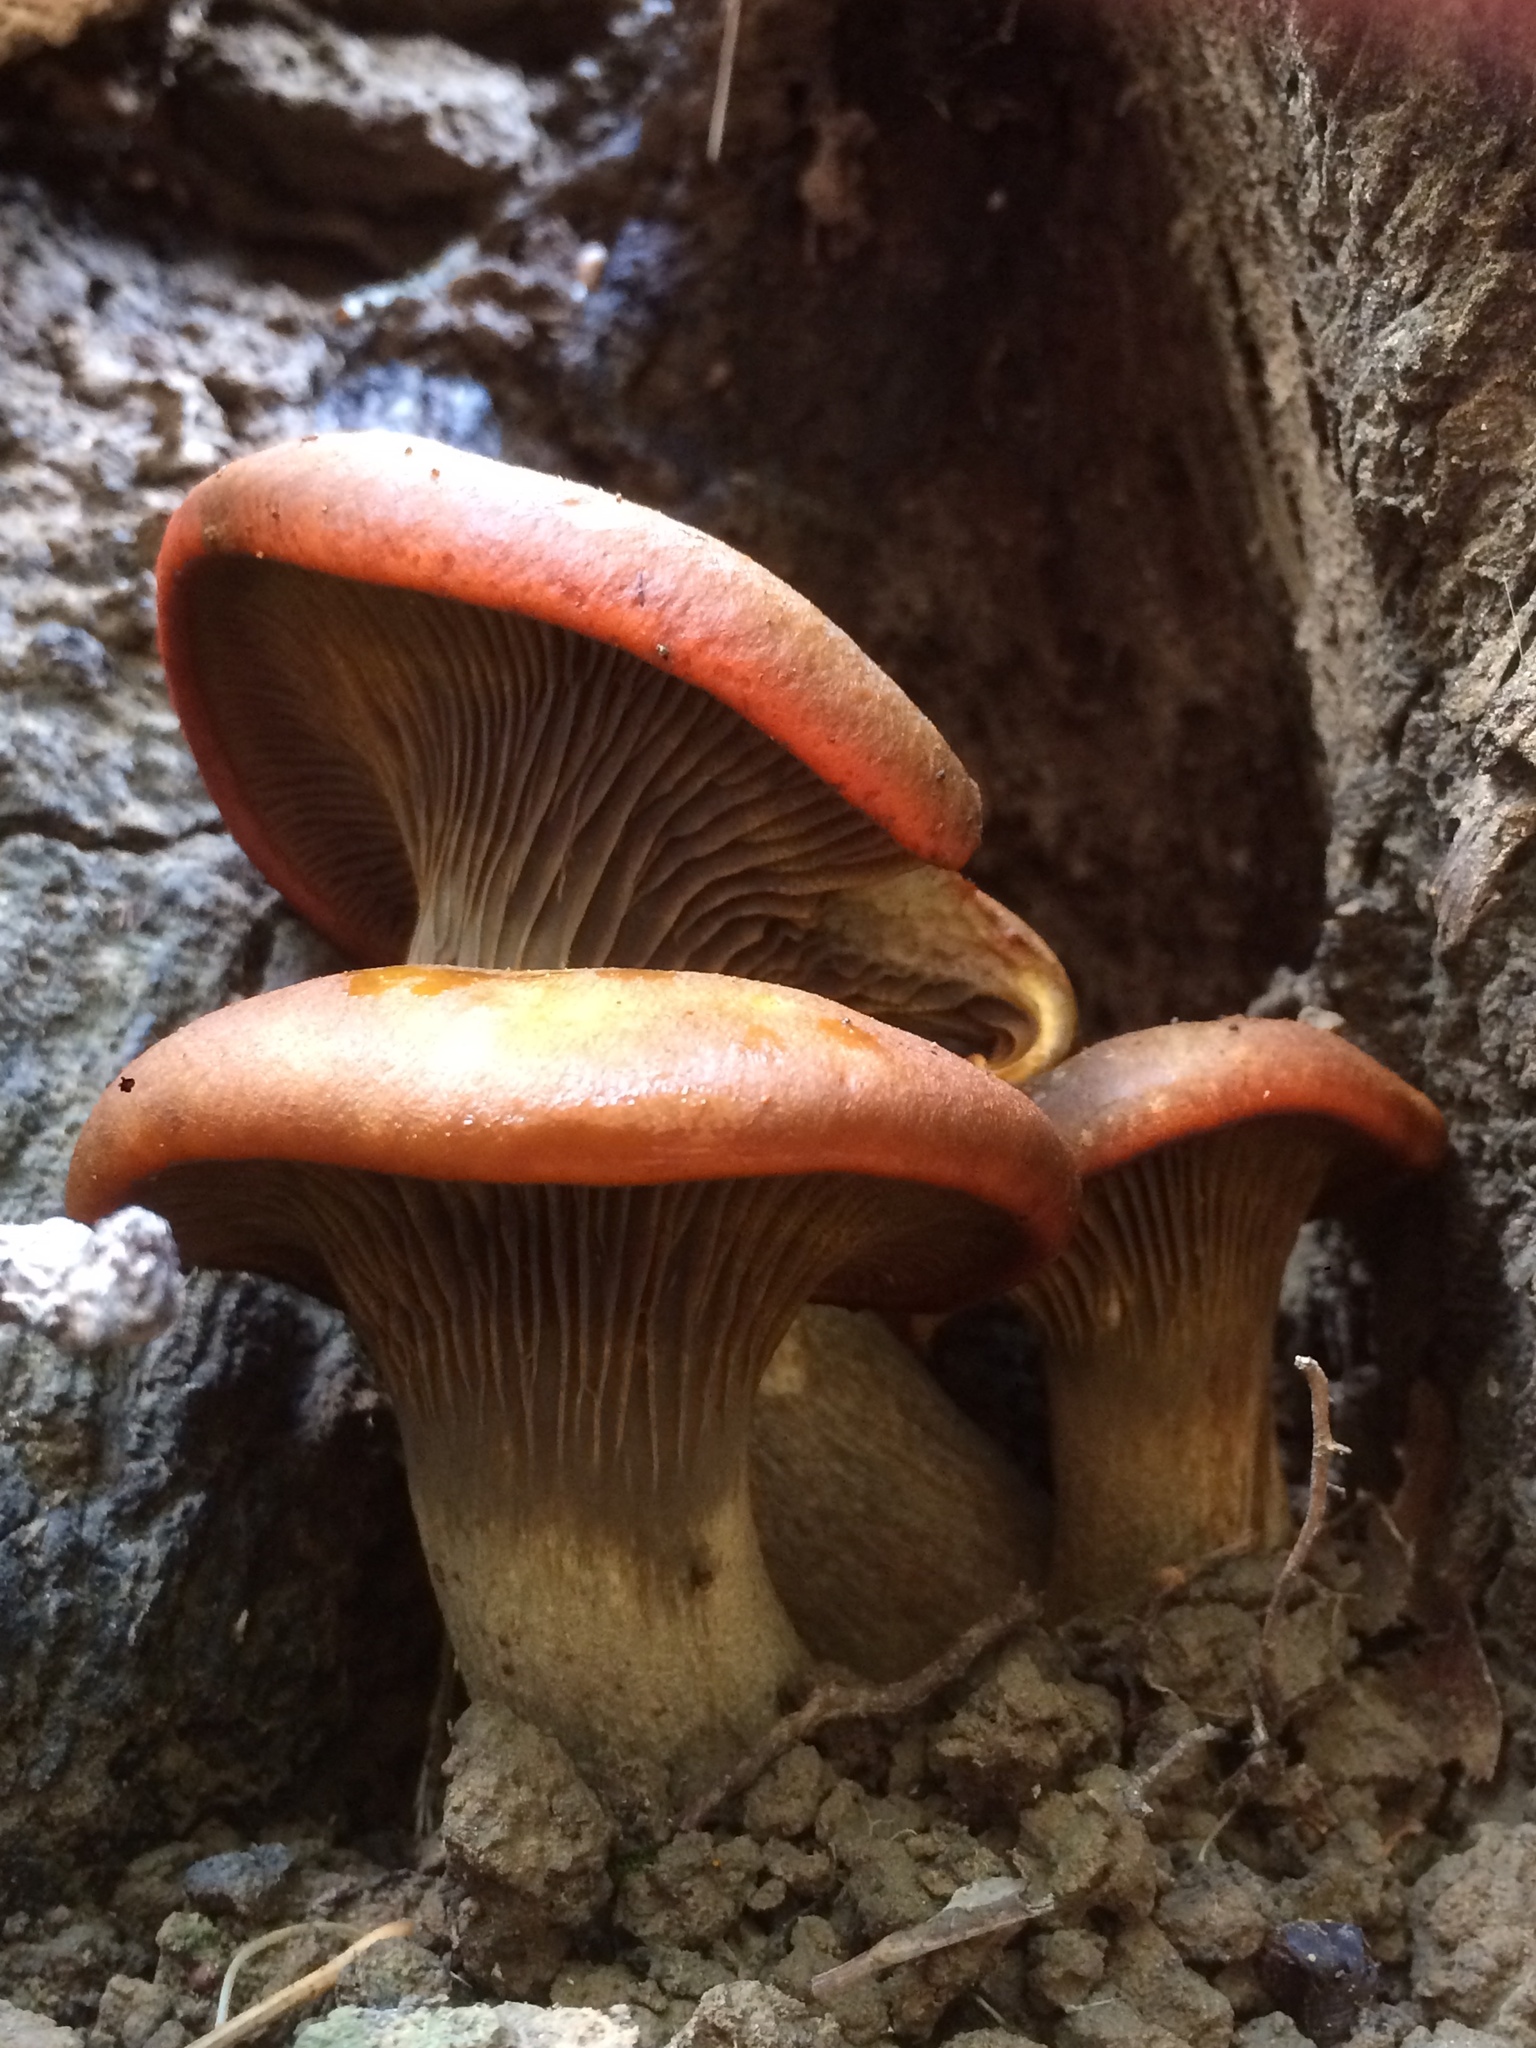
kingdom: Fungi
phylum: Basidiomycota
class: Agaricomycetes
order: Agaricales
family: Omphalotaceae
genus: Omphalotus
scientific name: Omphalotus olivascens
